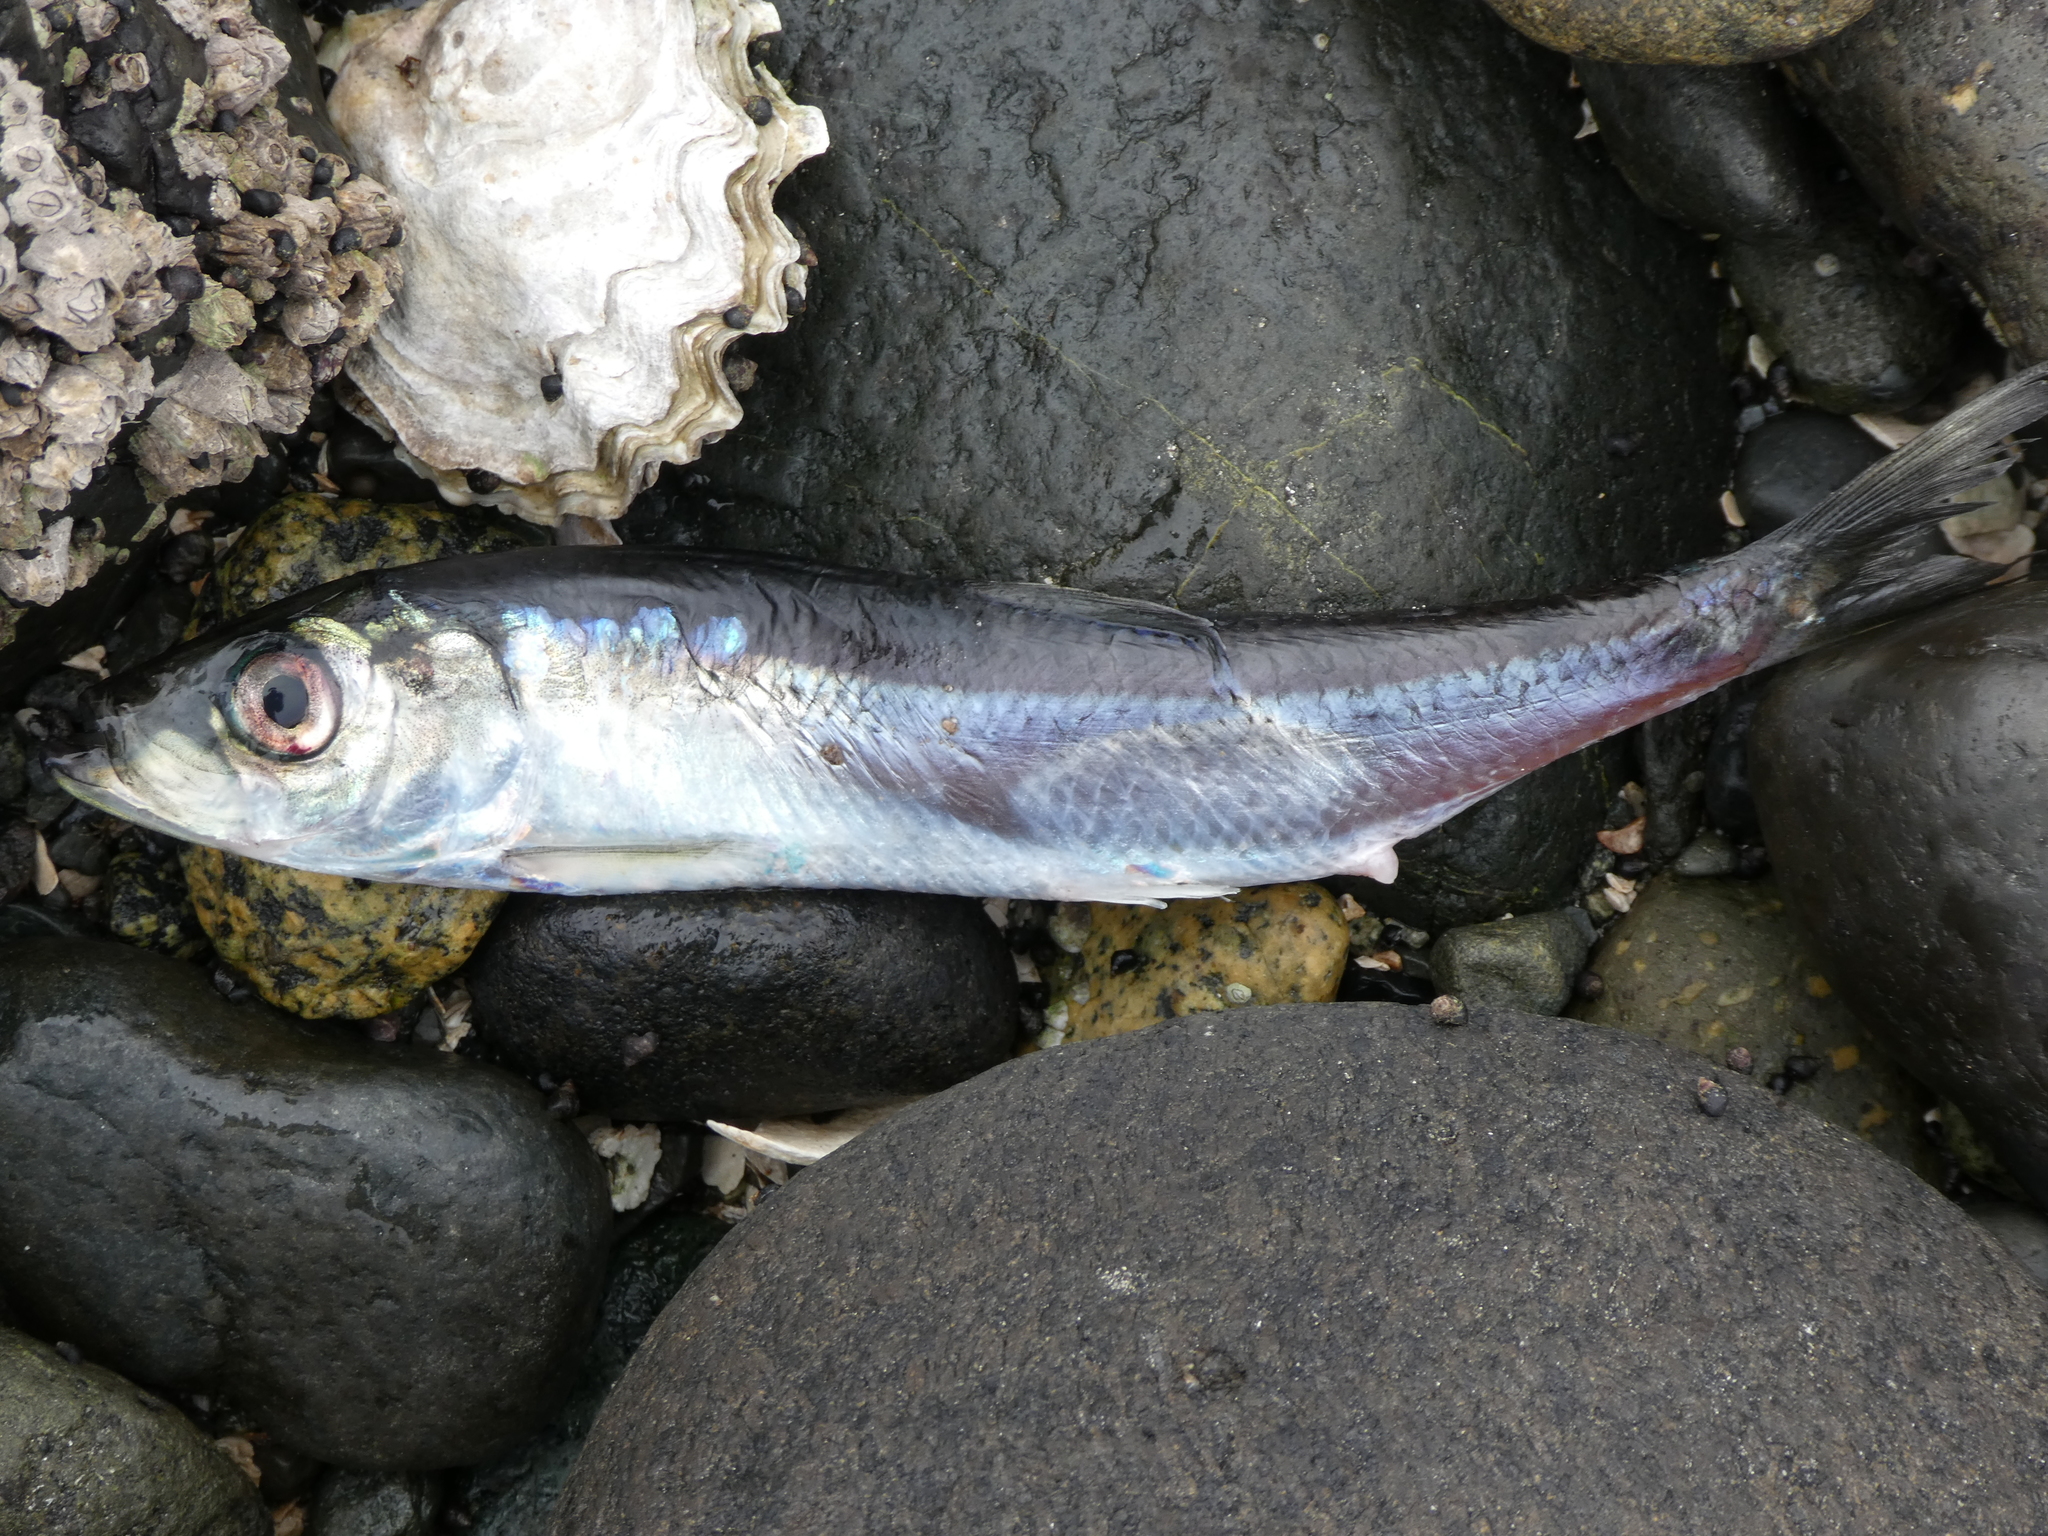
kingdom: Animalia
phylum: Chordata
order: Clupeiformes
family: Clupeidae
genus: Clupea
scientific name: Clupea pallasii
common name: Pacific herring
